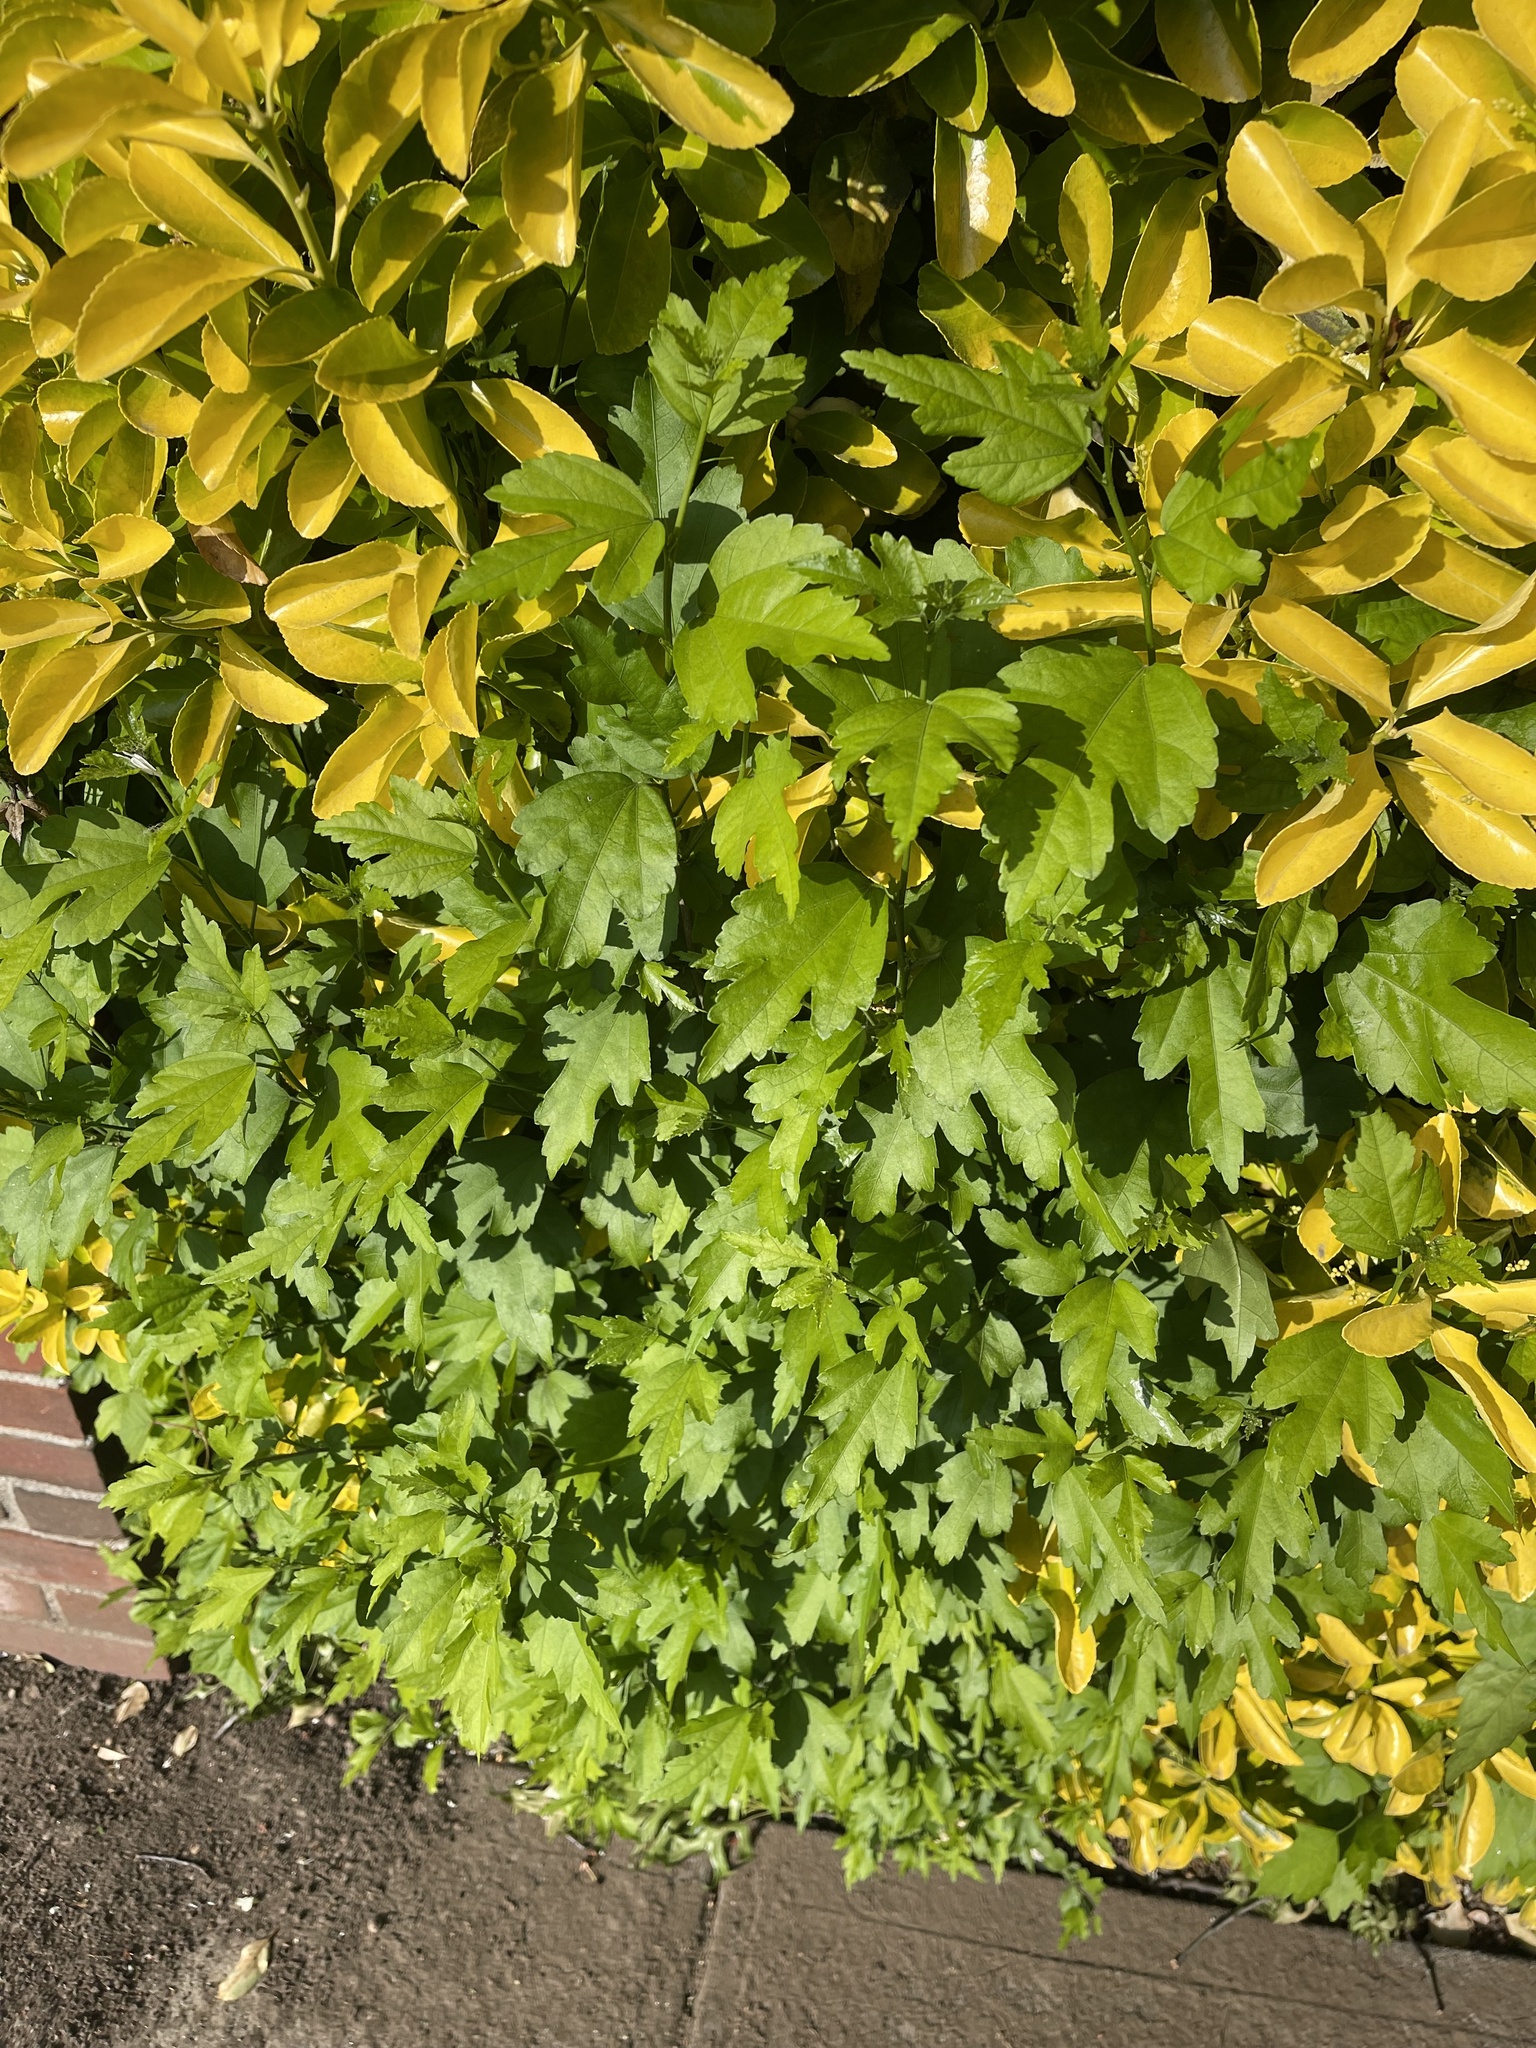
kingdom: Plantae
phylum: Tracheophyta
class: Magnoliopsida
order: Malvales
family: Malvaceae
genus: Hibiscus
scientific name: Hibiscus syriacus
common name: Syrian ketmia
